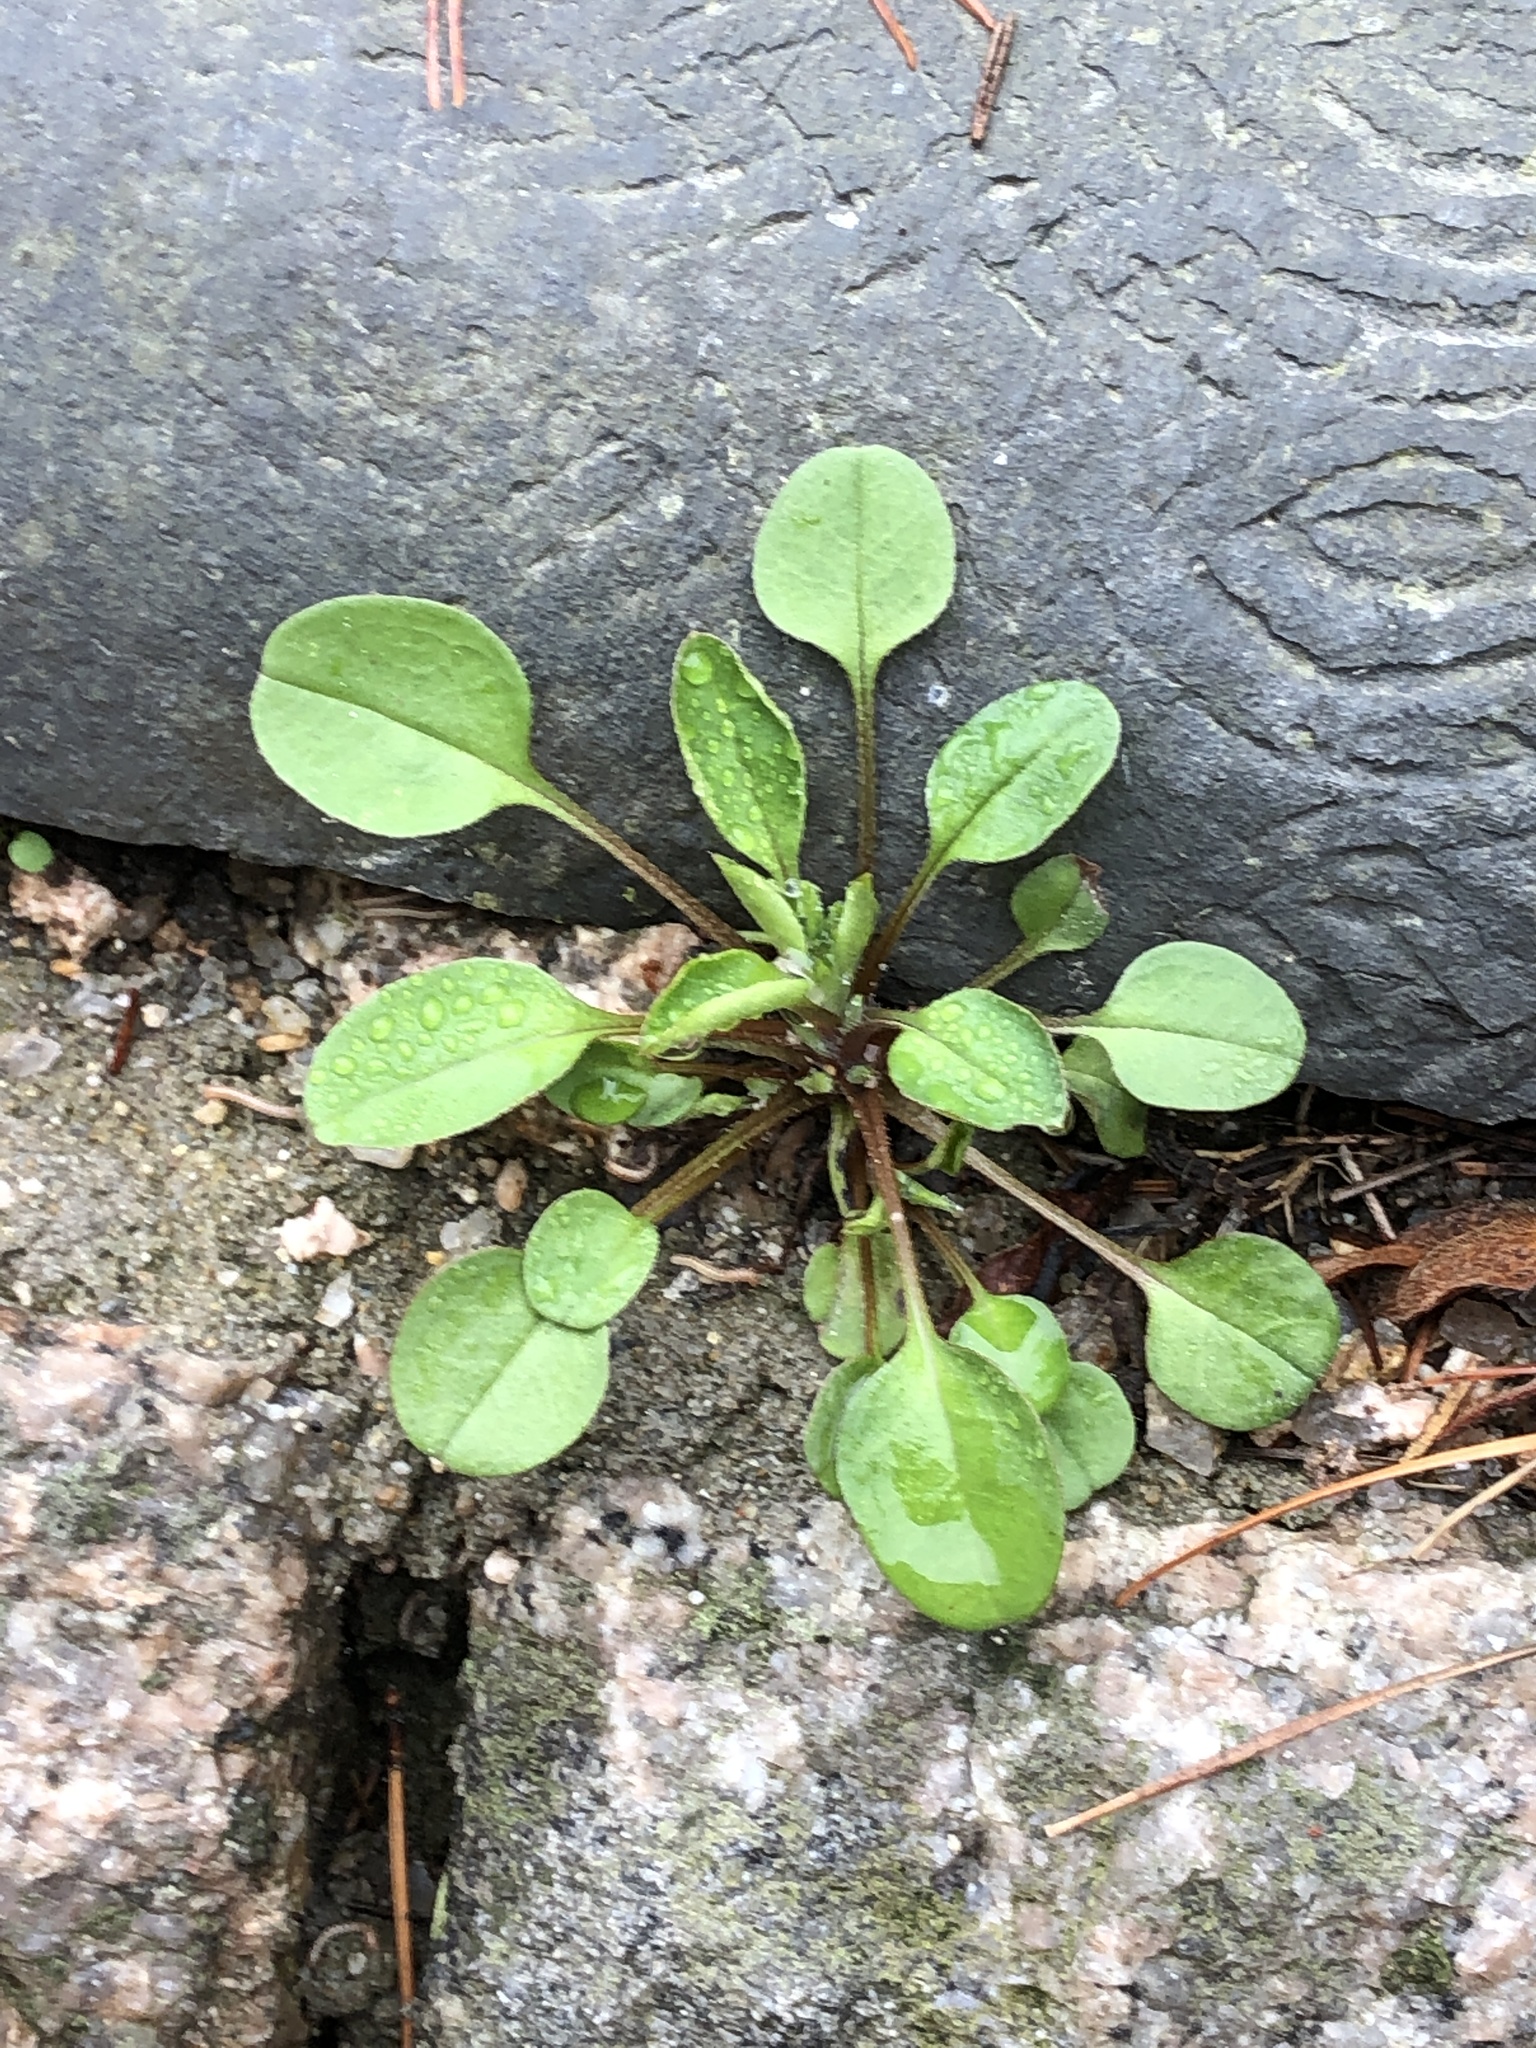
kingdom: Plantae
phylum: Tracheophyta
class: Magnoliopsida
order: Boraginales
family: Boraginaceae
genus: Trigonotis
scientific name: Trigonotis peduncularis
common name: Cucumber herb
